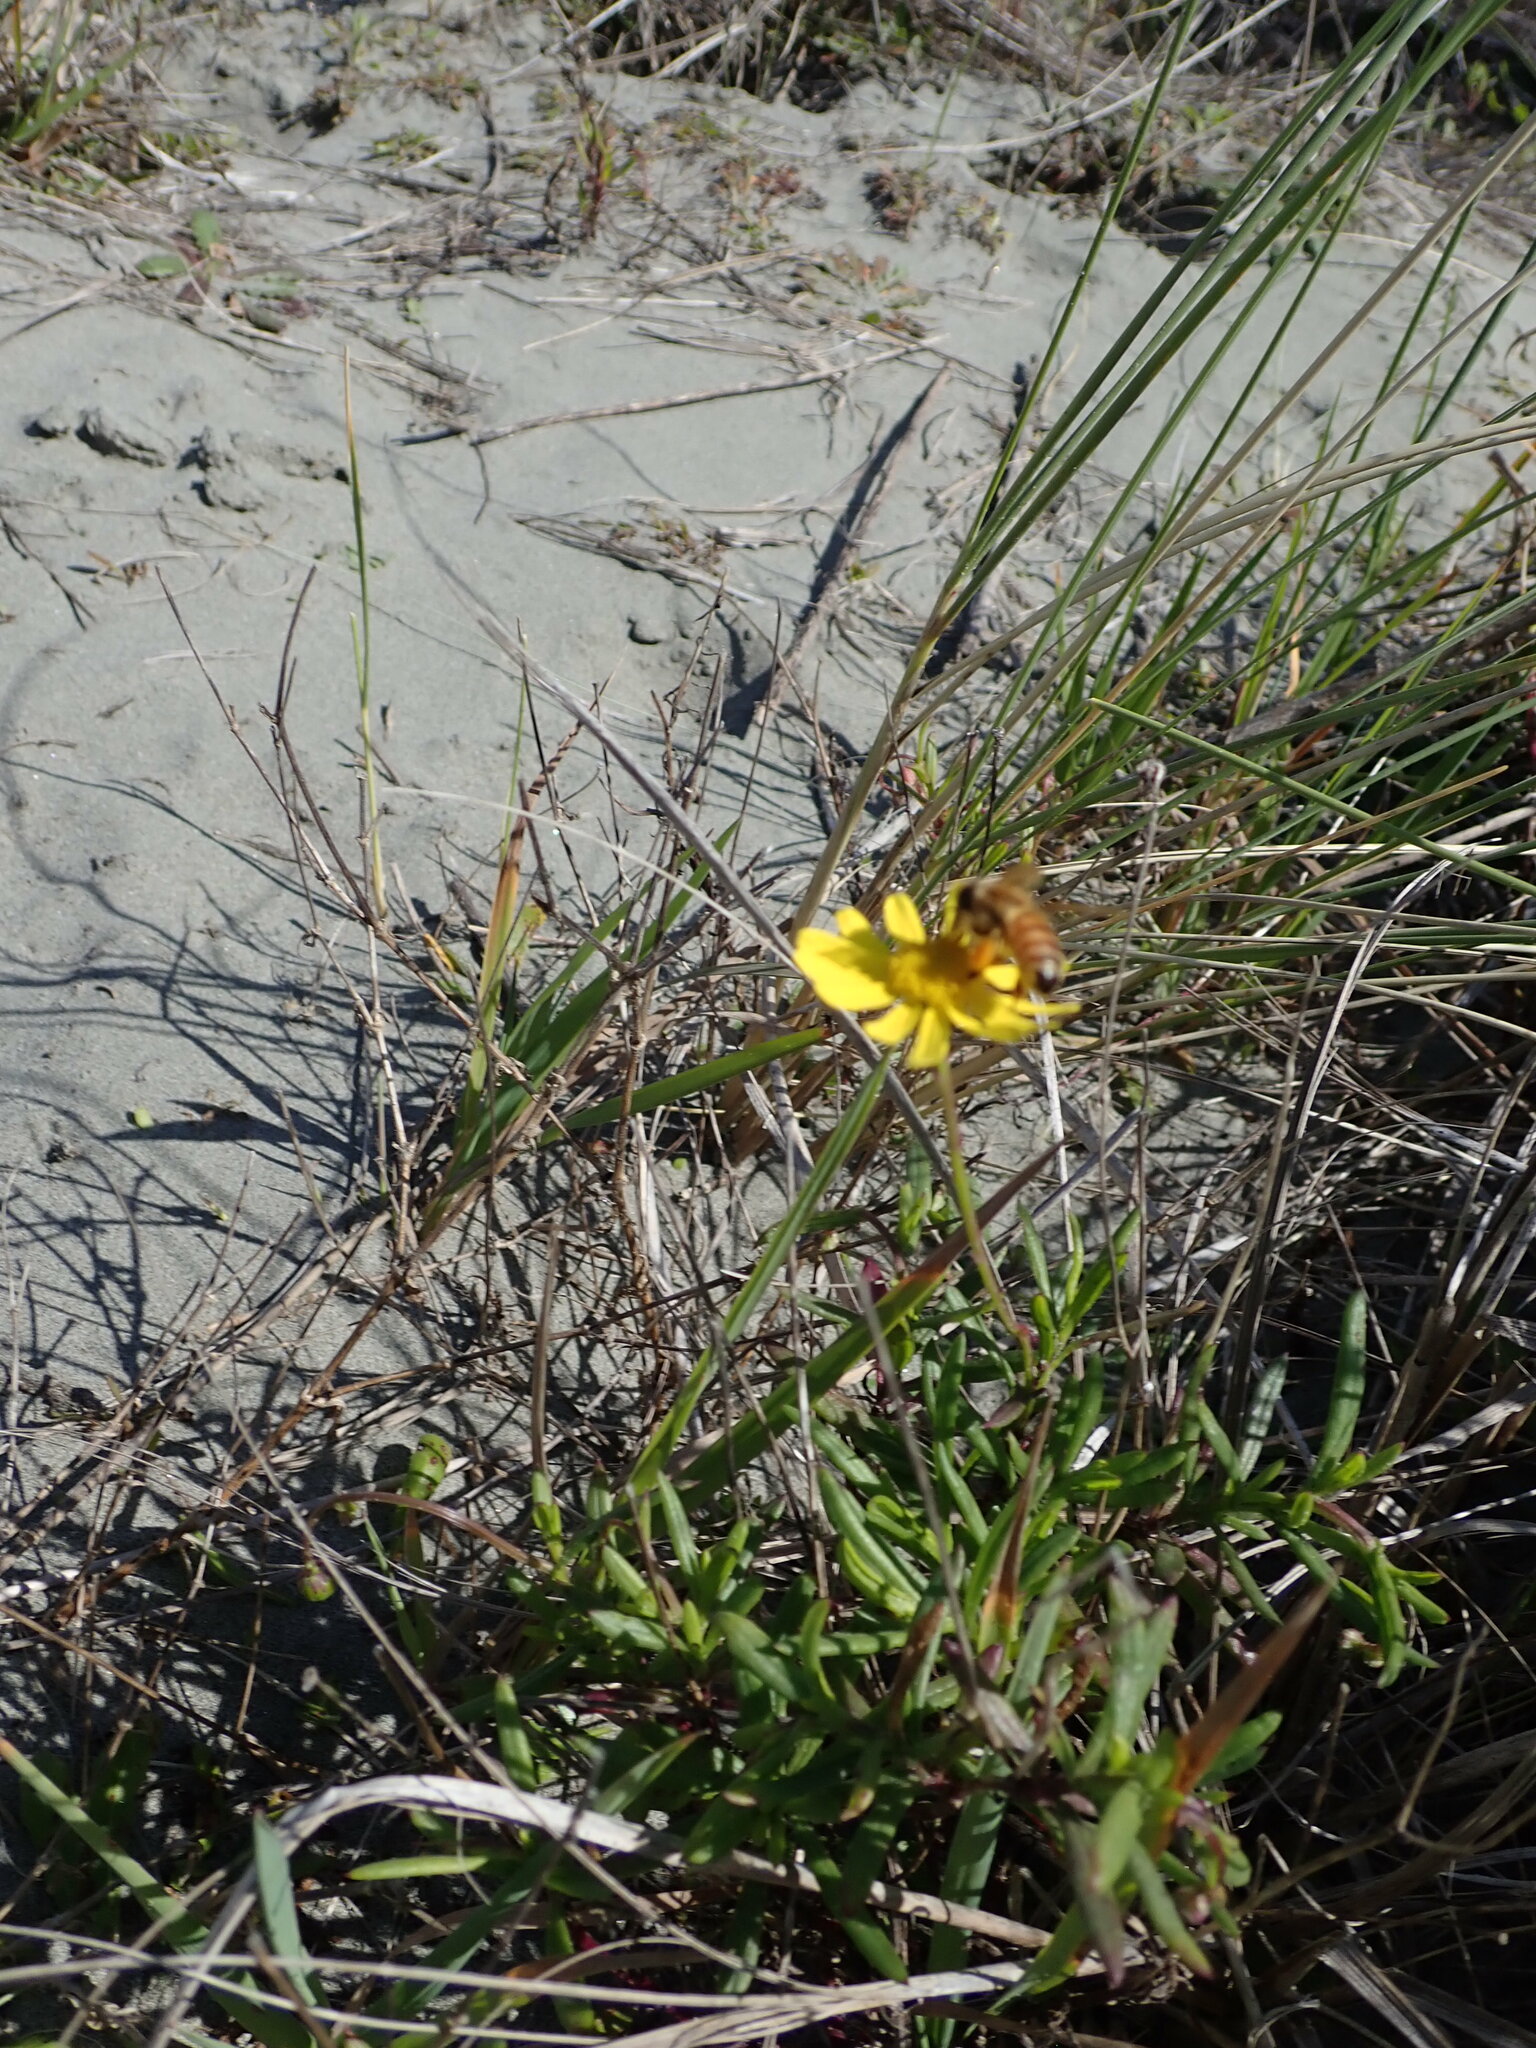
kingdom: Animalia
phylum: Arthropoda
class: Insecta
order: Hymenoptera
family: Apidae
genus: Apis
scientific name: Apis mellifera
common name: Honey bee
